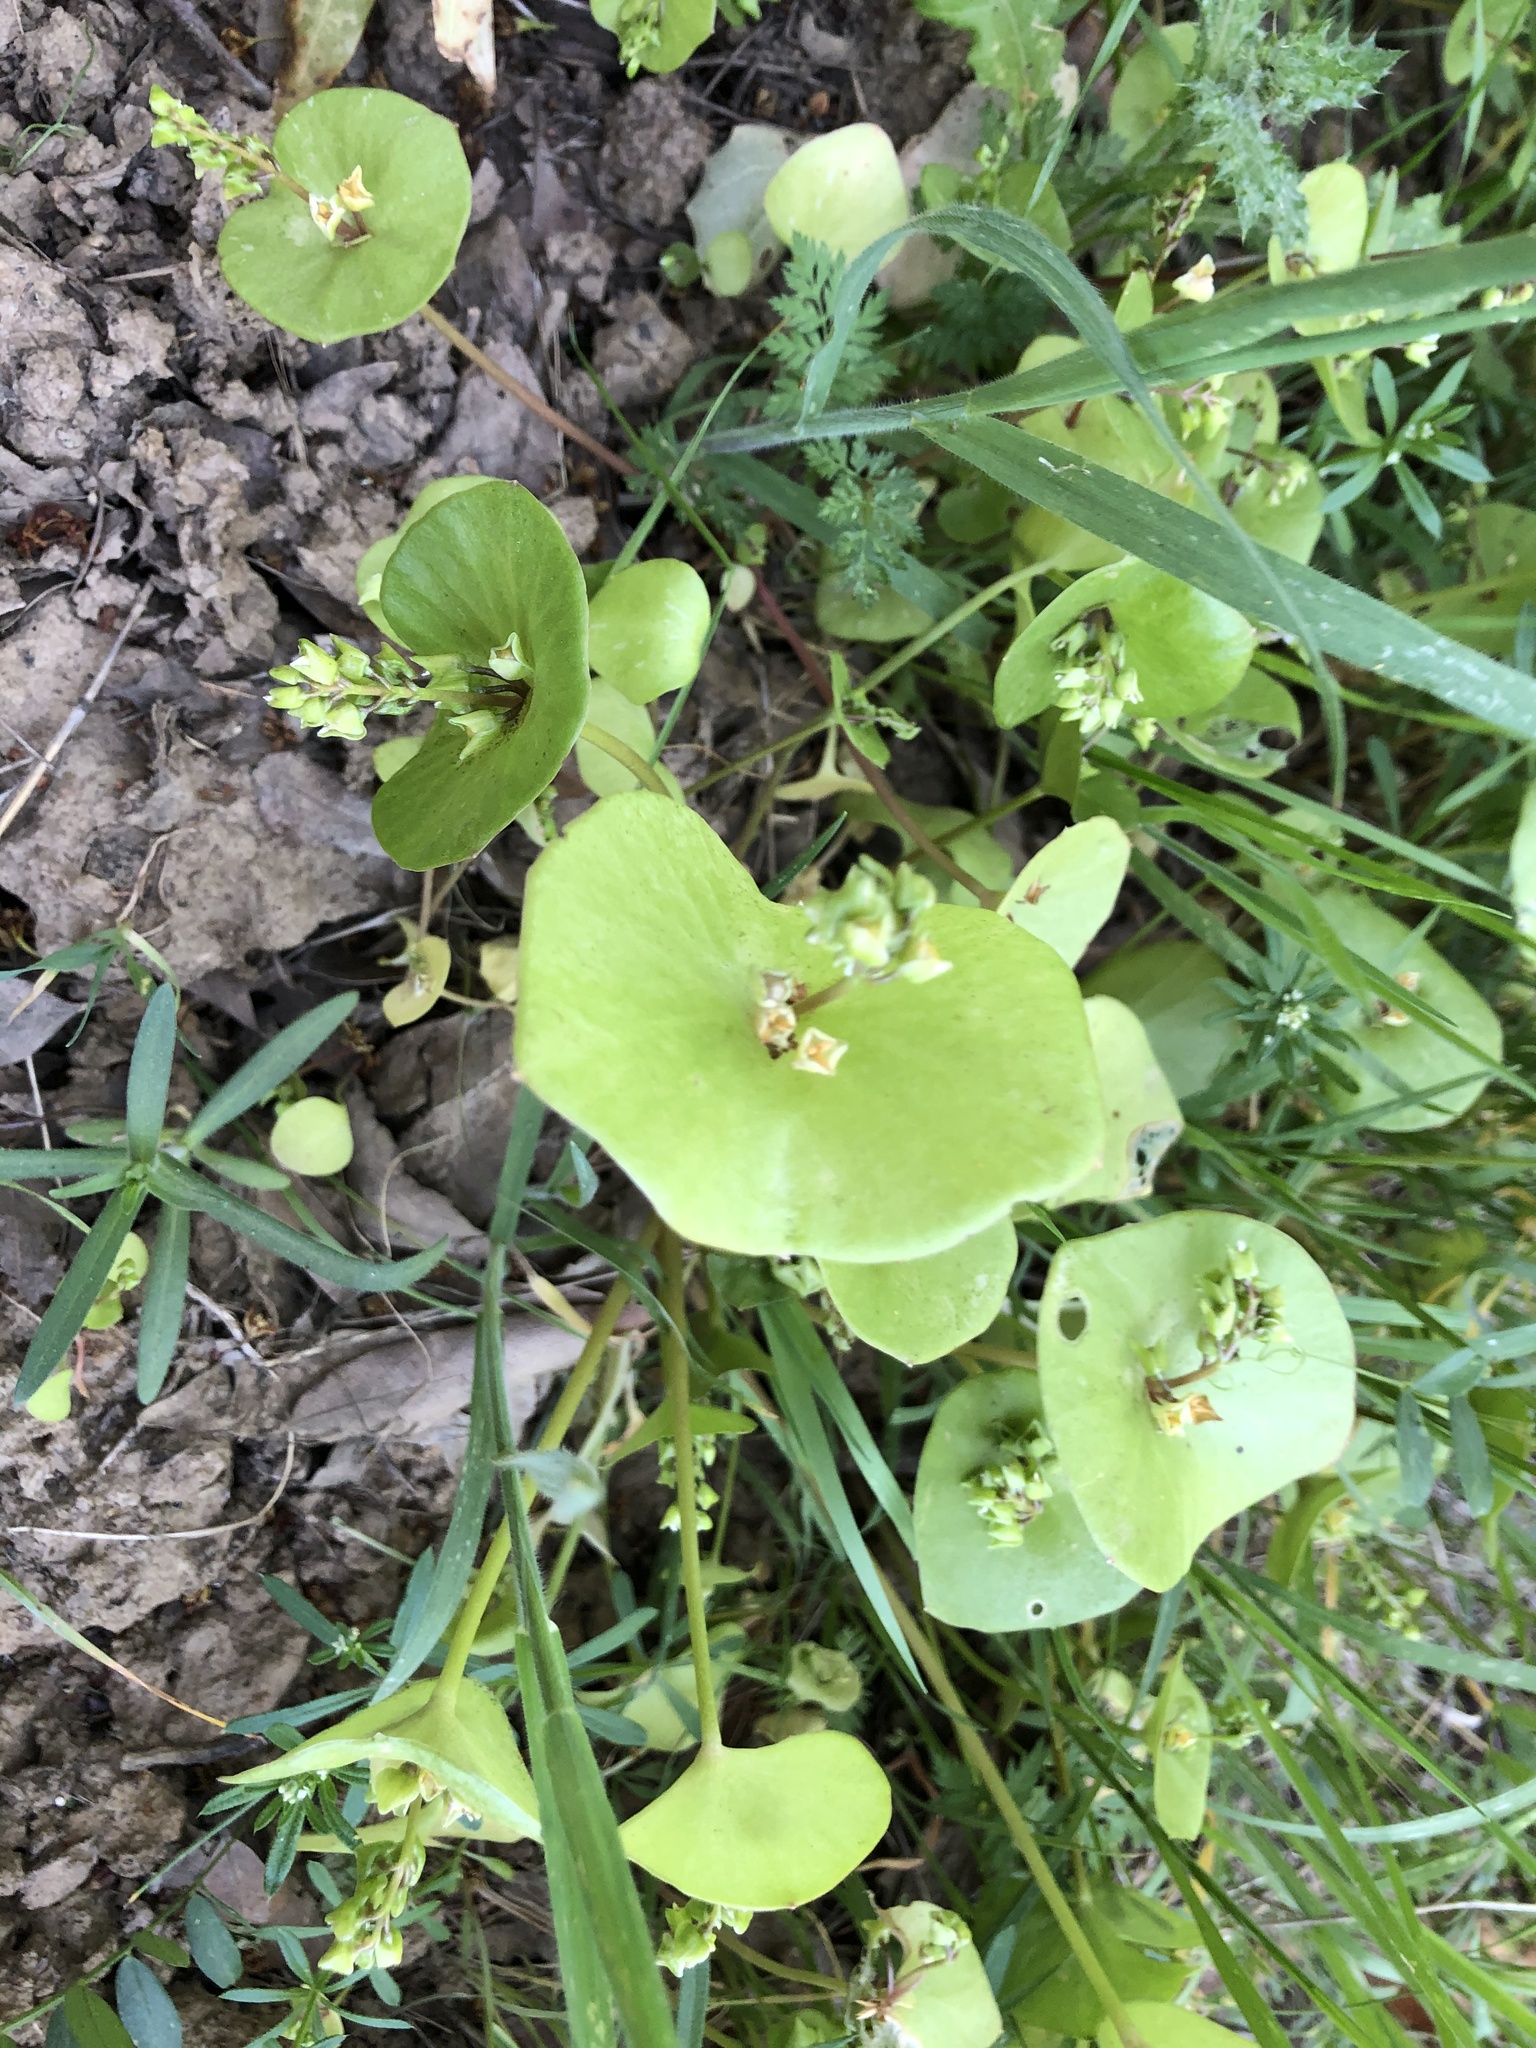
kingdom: Plantae
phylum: Tracheophyta
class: Magnoliopsida
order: Caryophyllales
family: Montiaceae
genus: Claytonia
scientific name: Claytonia perfoliata
